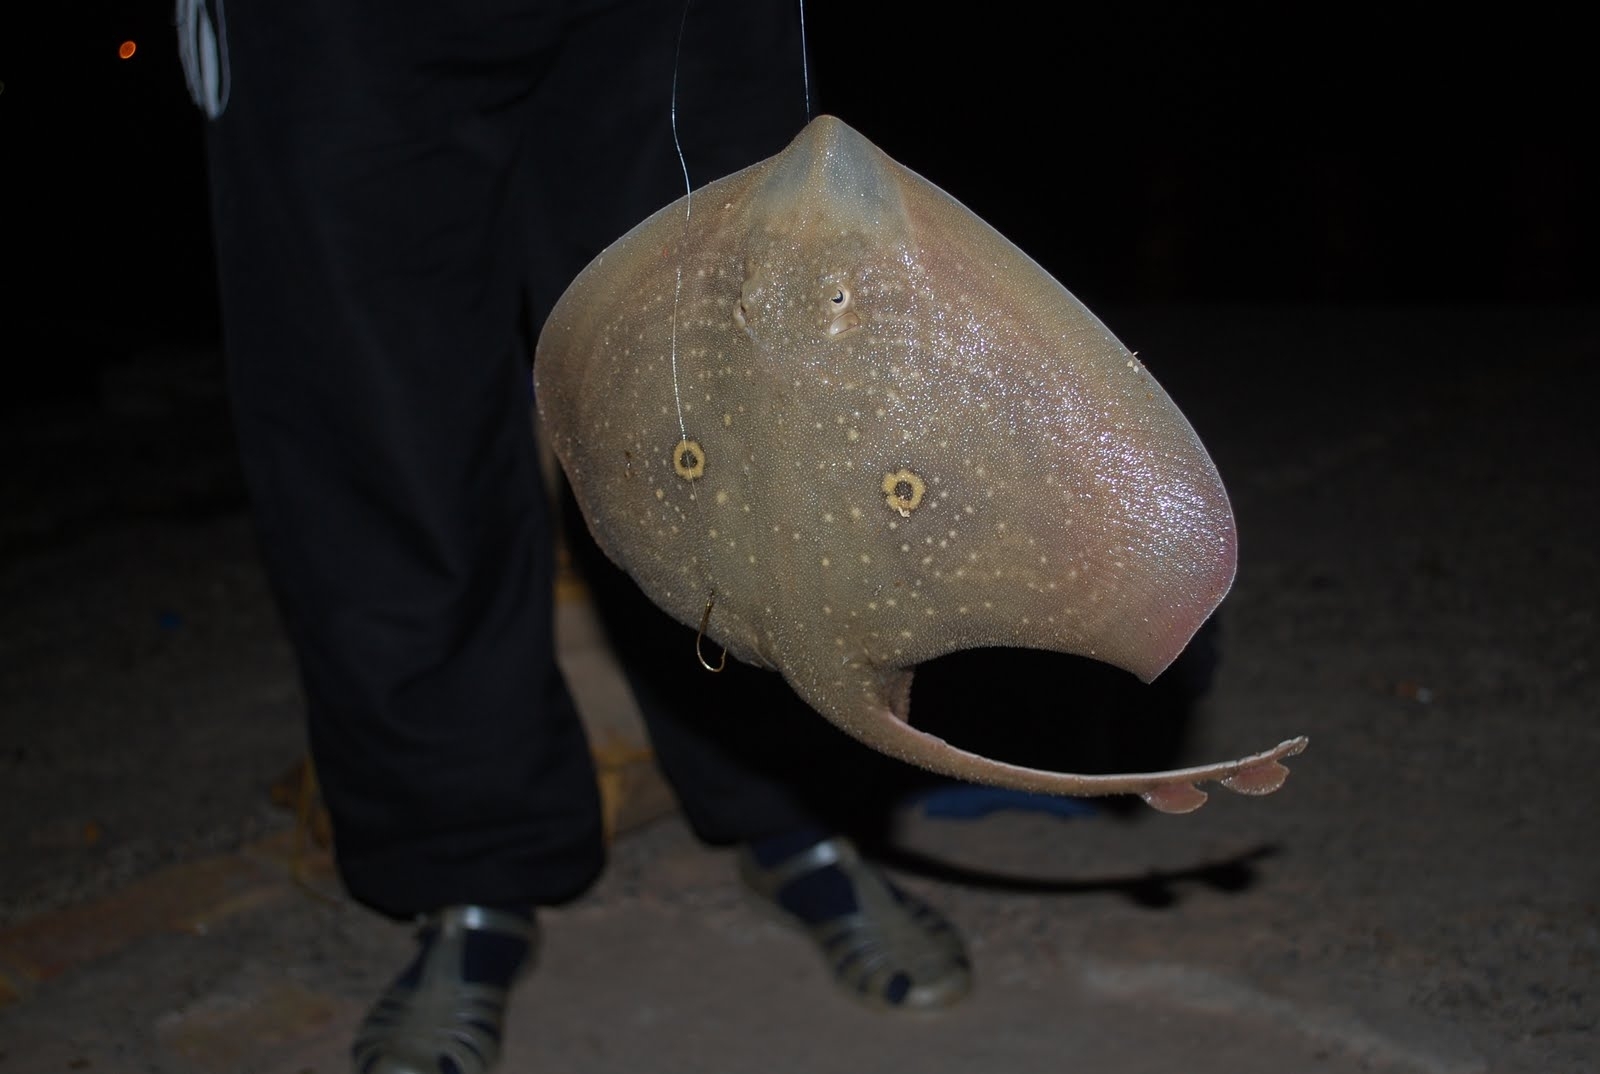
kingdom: Animalia
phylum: Chordata
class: Elasmobranchii
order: Rajiformes
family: Rajidae
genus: Raja
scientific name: Raja radula
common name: Rough ray
